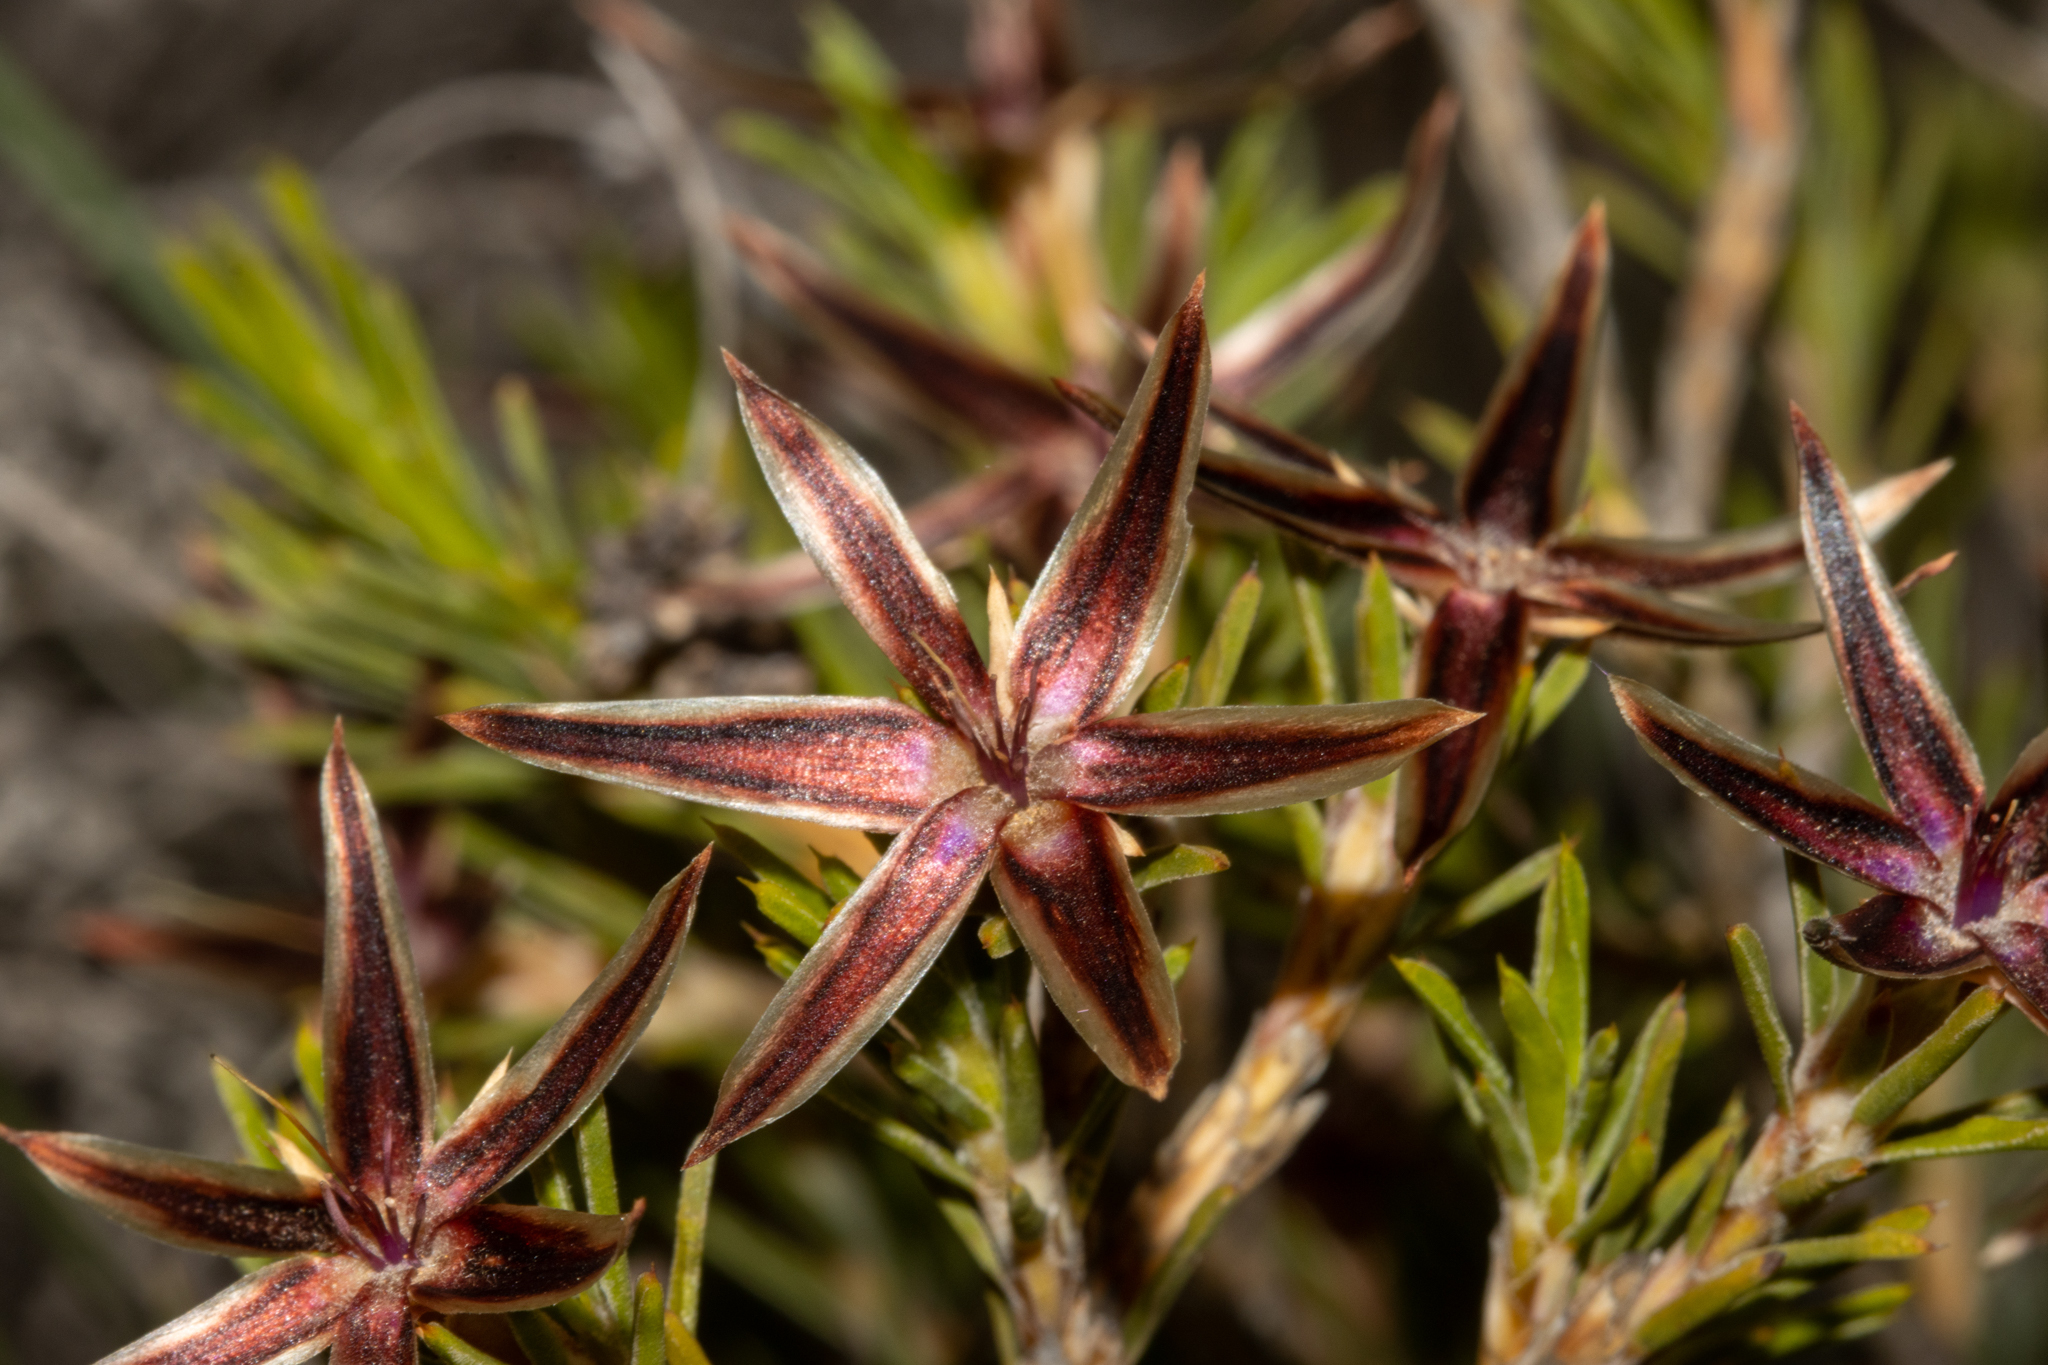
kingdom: Plantae
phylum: Tracheophyta
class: Liliopsida
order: Arecales
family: Dasypogonaceae
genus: Calectasia
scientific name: Calectasia valida
